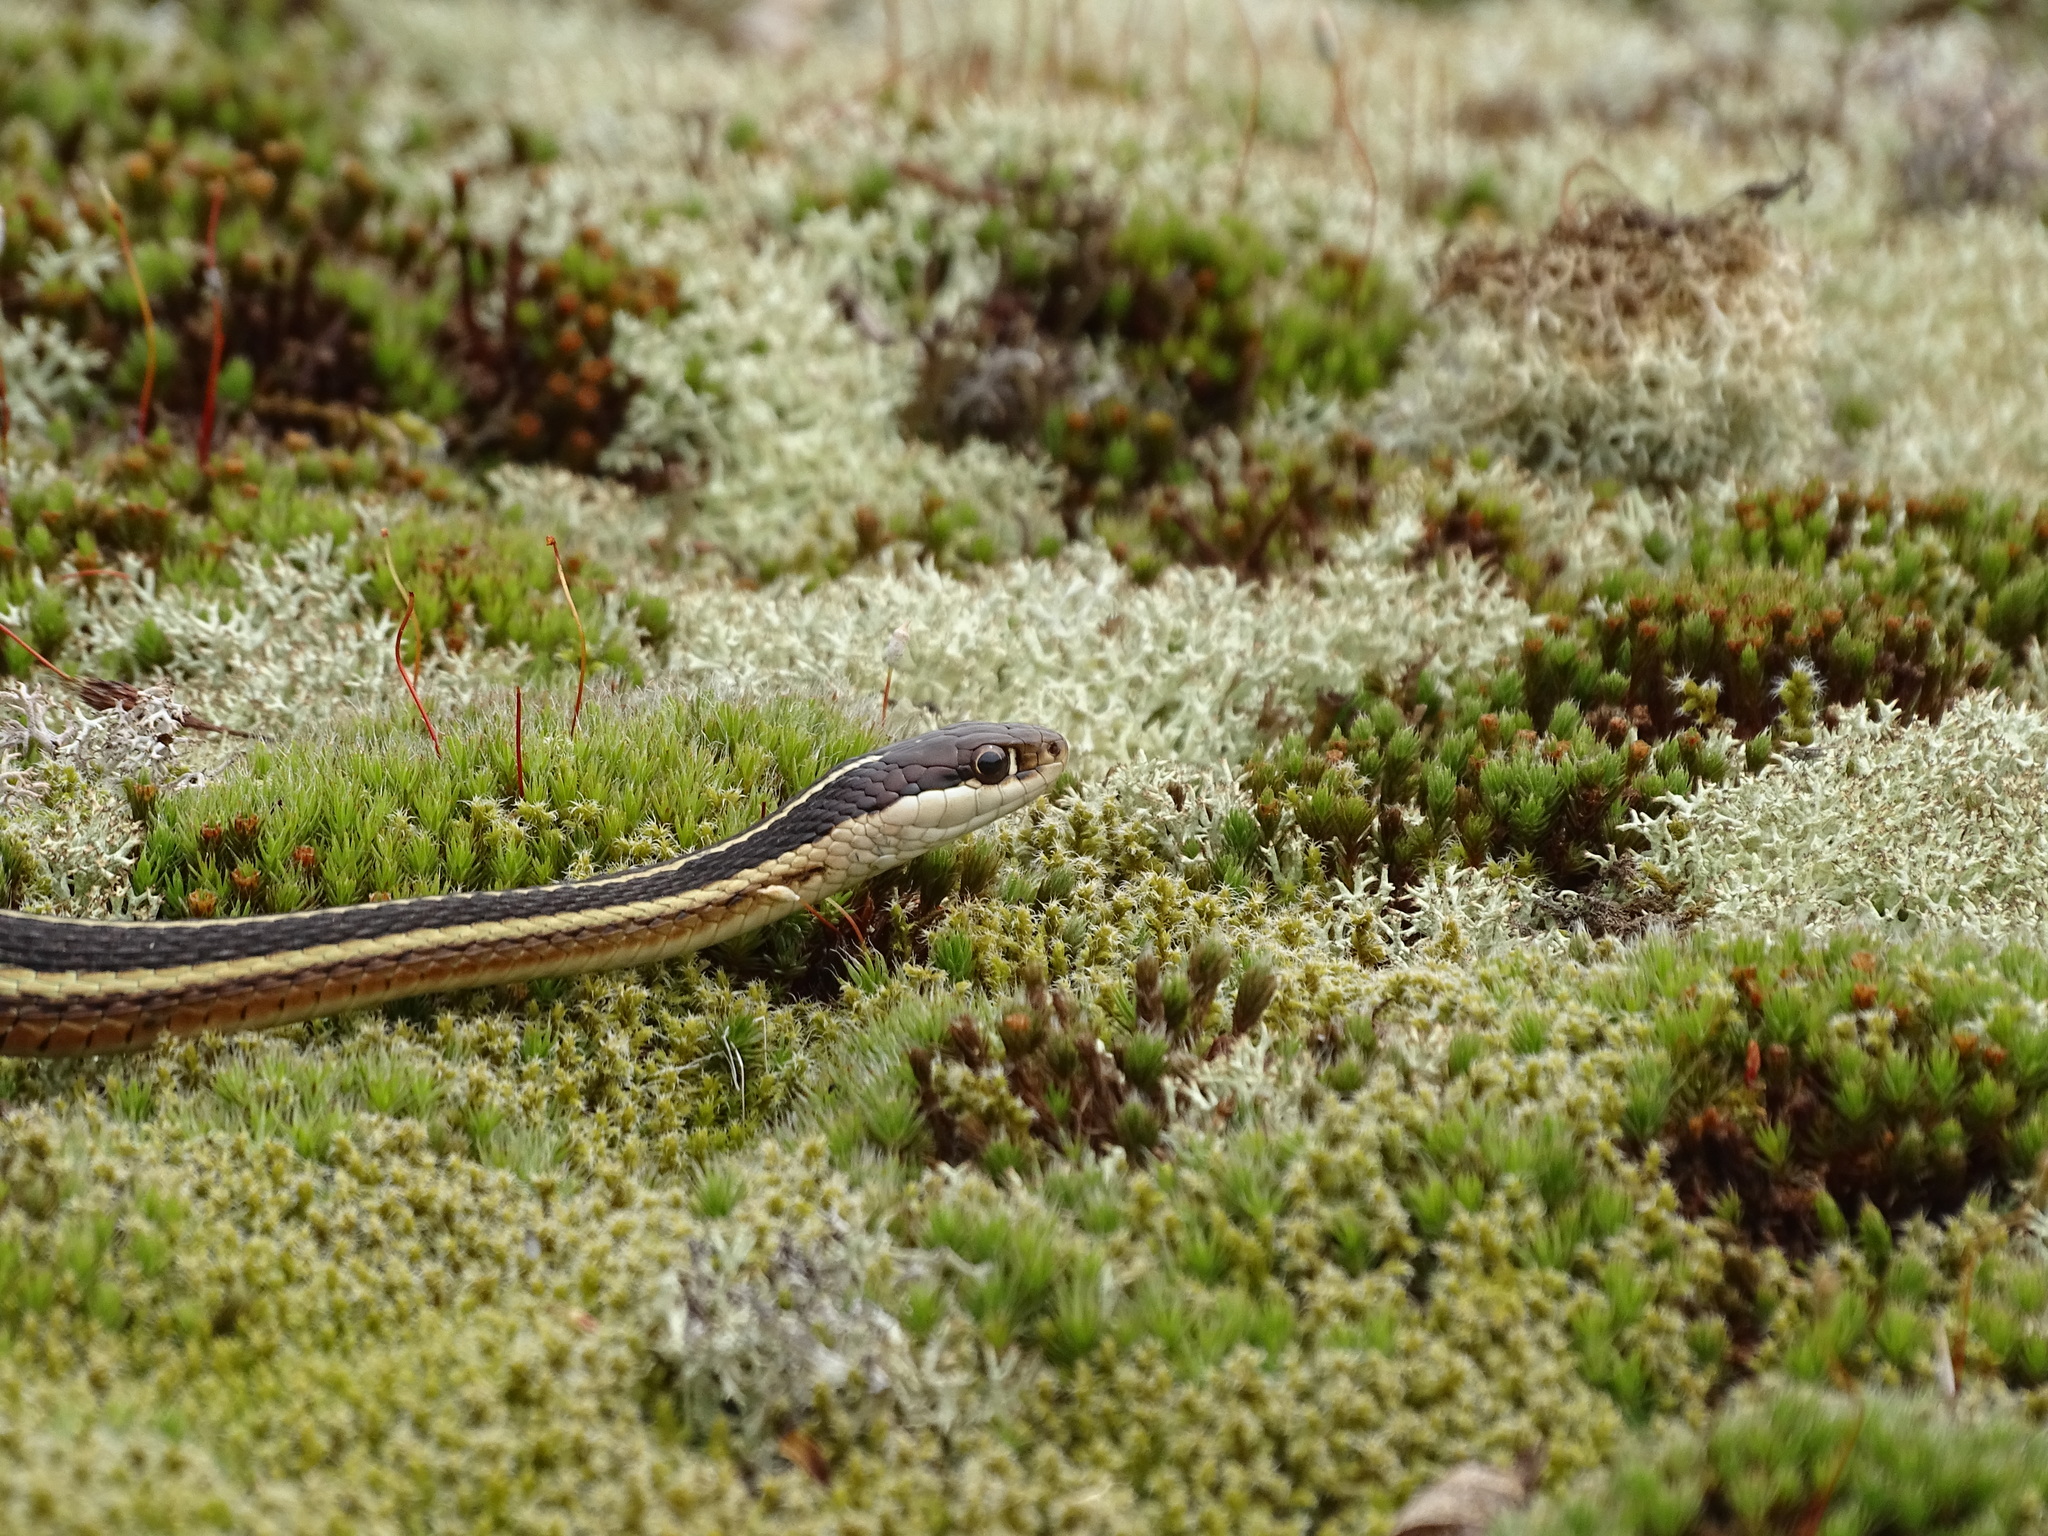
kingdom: Animalia
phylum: Chordata
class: Squamata
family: Colubridae
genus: Thamnophis
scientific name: Thamnophis saurita
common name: Eastern ribbonsnake
